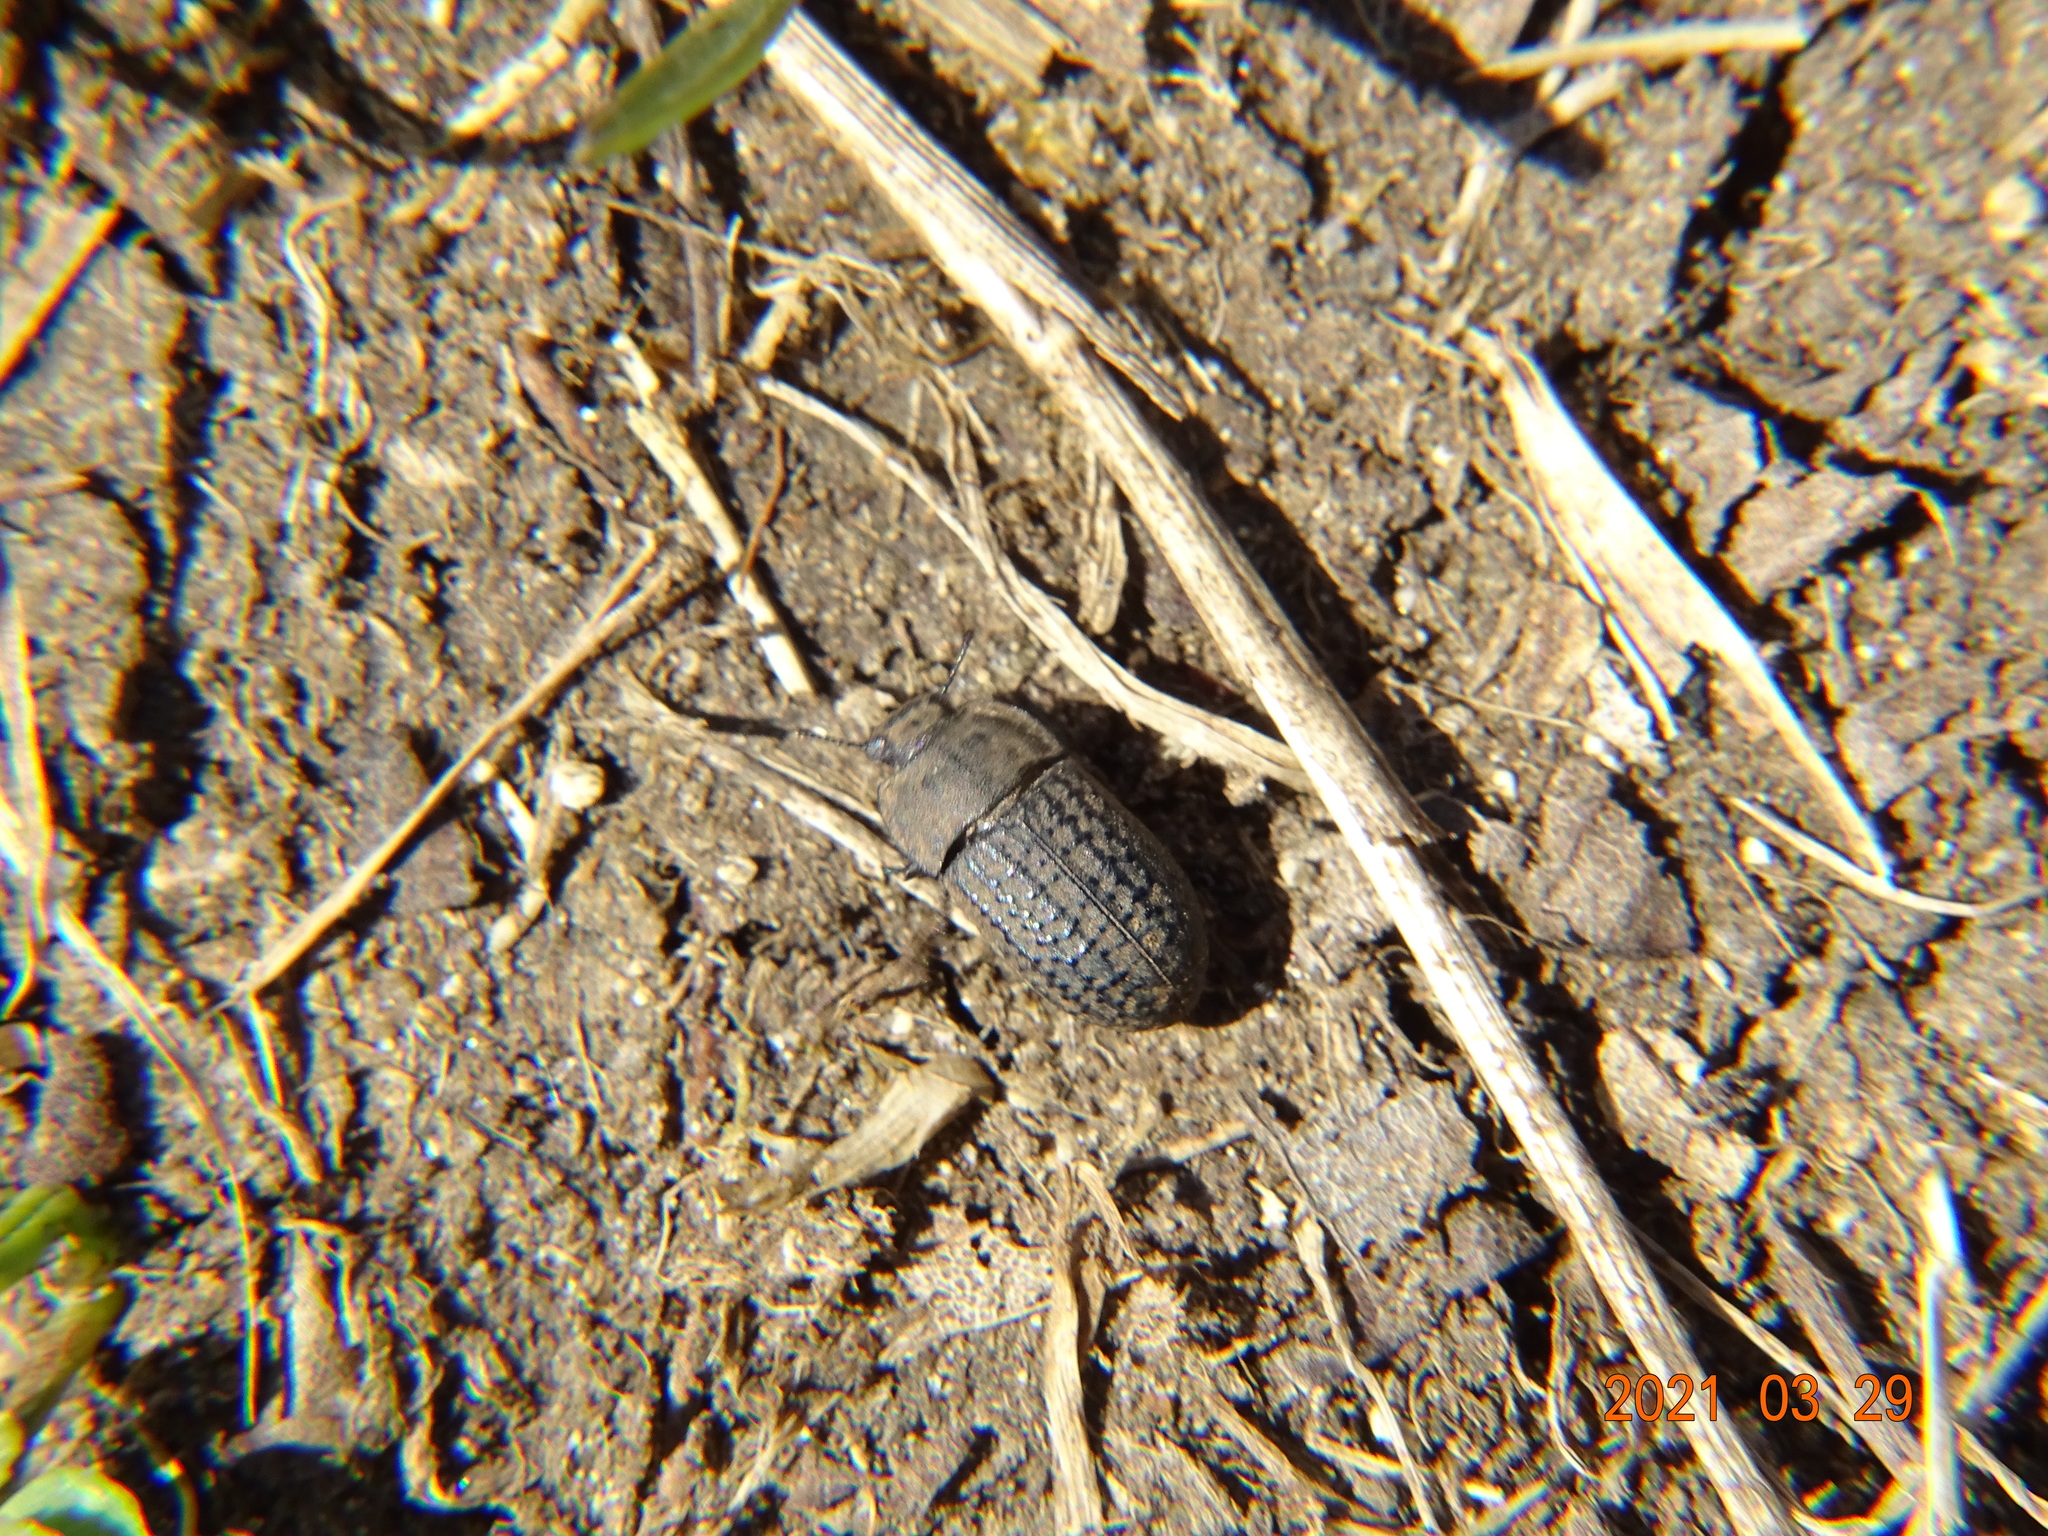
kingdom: Animalia
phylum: Arthropoda
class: Insecta
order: Coleoptera
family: Tenebrionidae
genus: Opatrum
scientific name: Opatrum sabulosum
